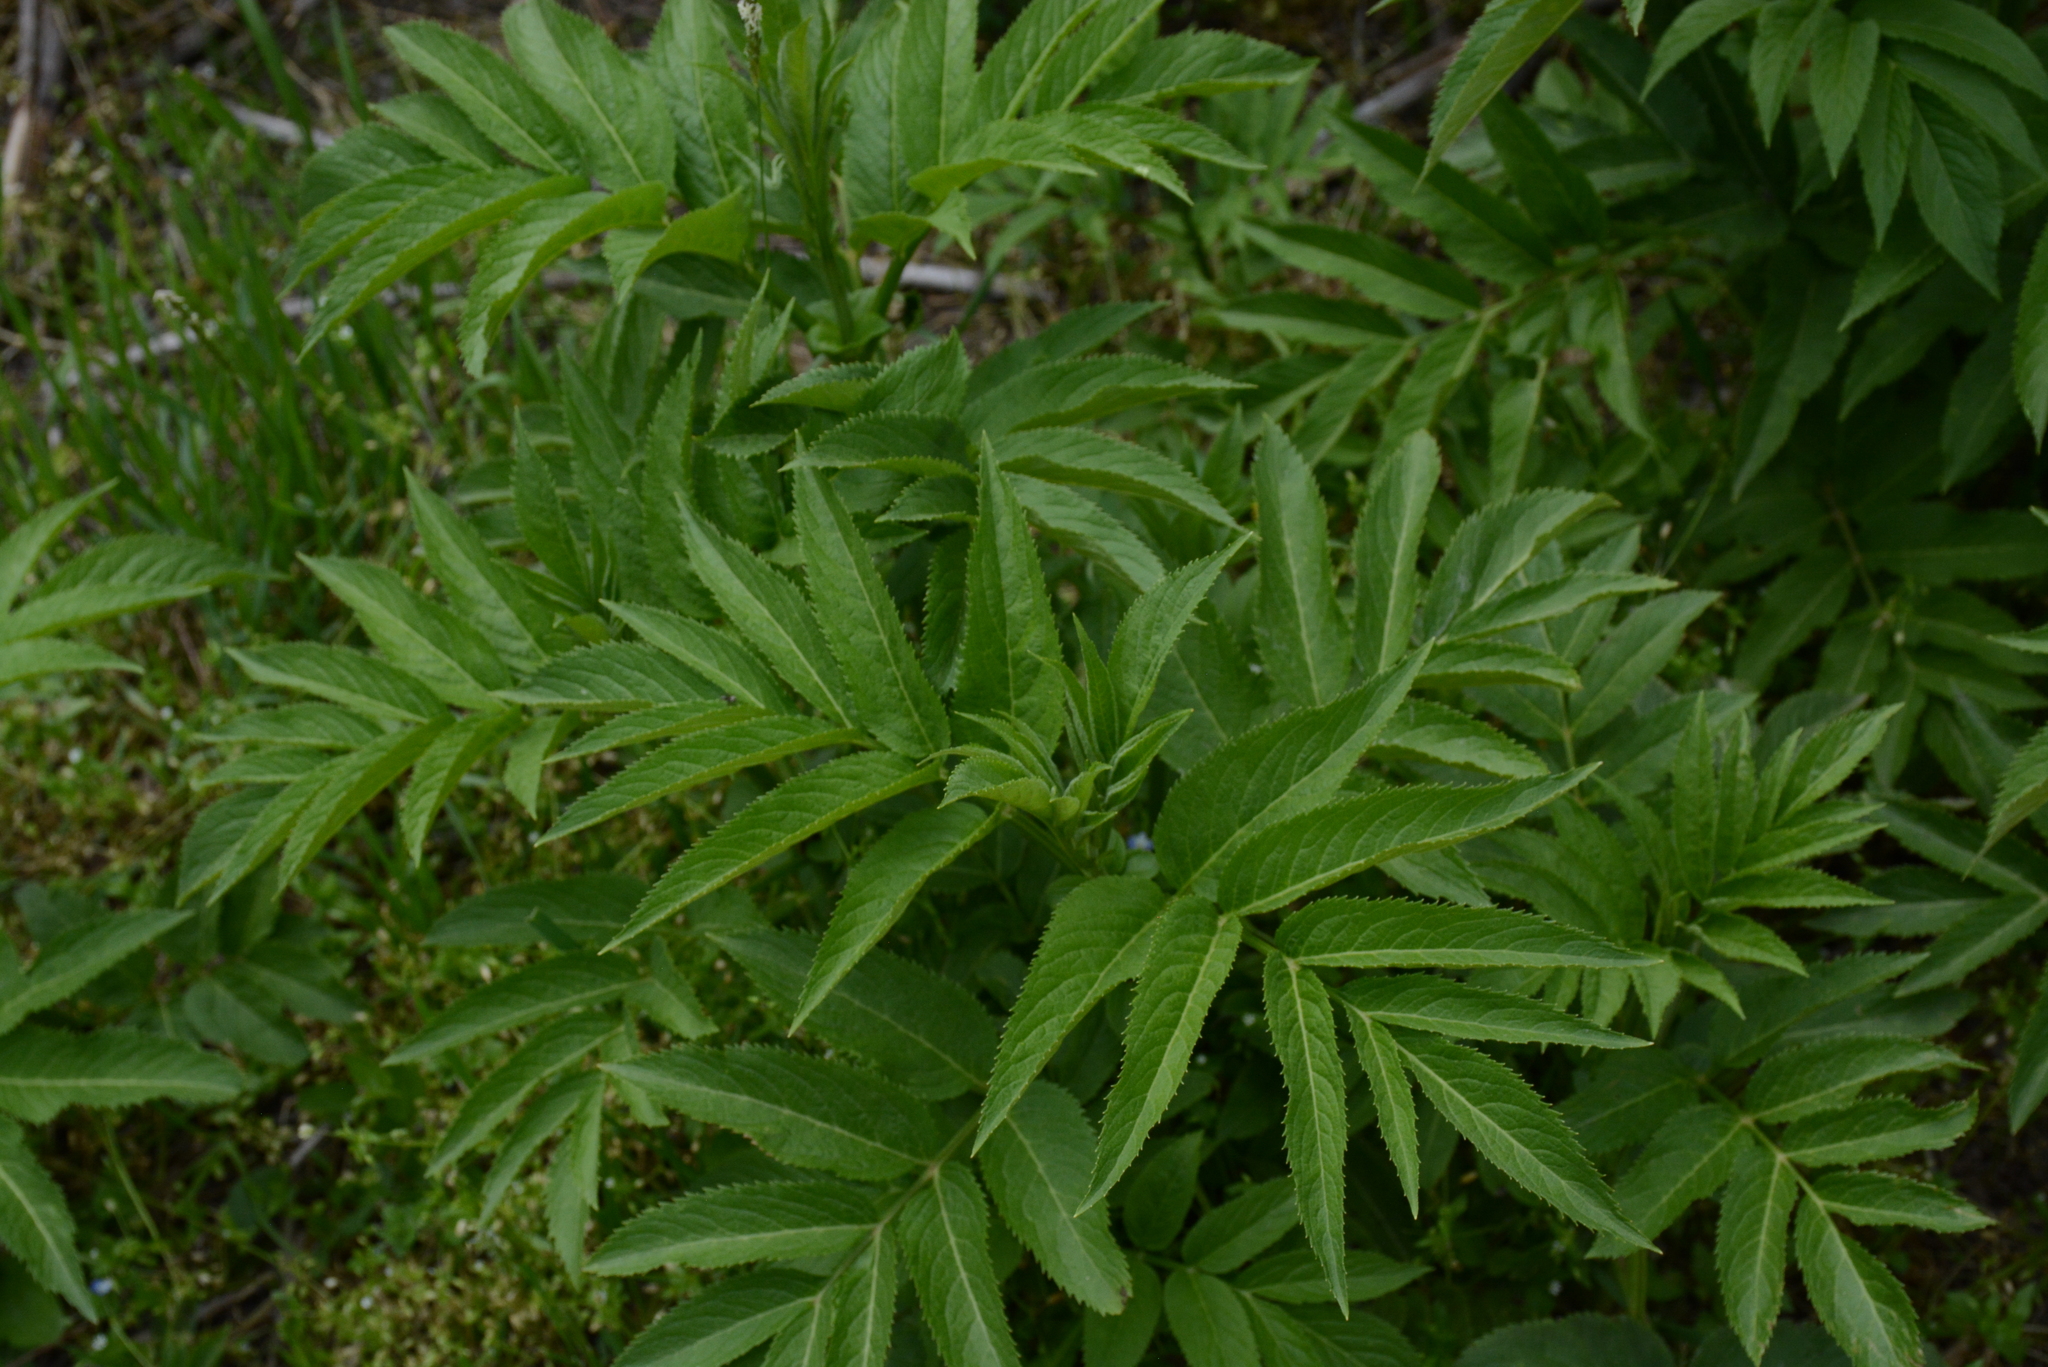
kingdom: Plantae
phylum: Tracheophyta
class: Magnoliopsida
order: Dipsacales
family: Viburnaceae
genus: Sambucus
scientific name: Sambucus ebulus
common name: Dwarf elder
